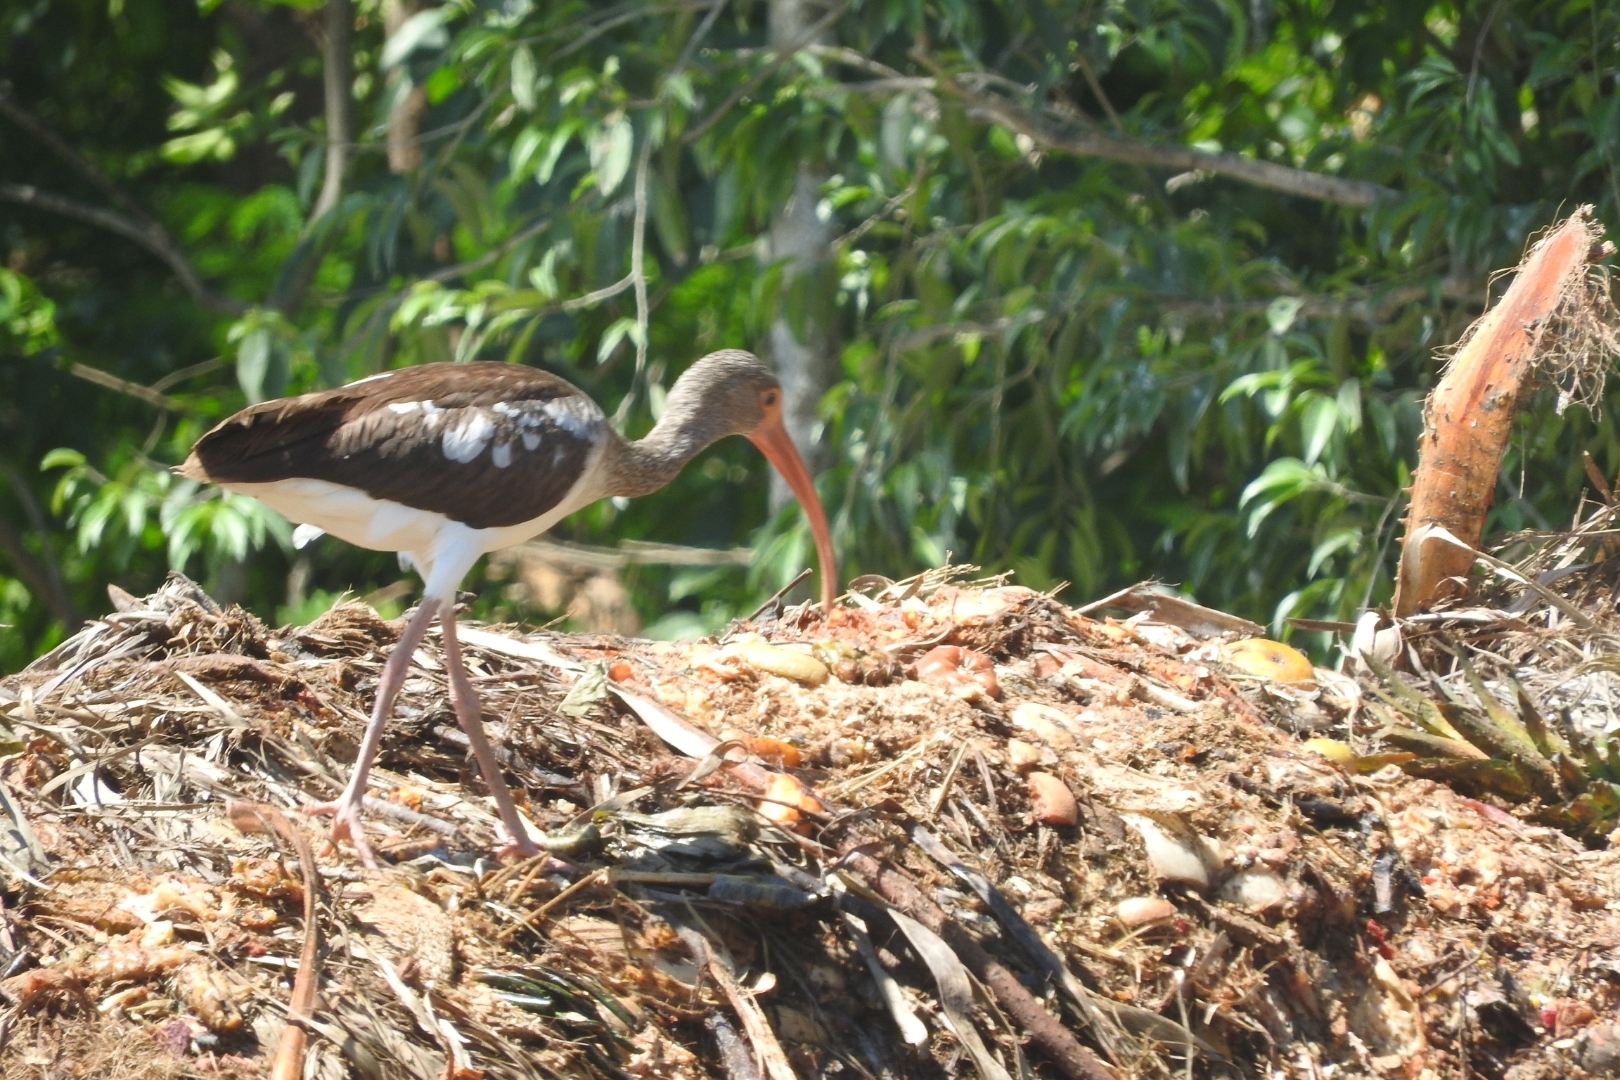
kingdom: Animalia
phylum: Chordata
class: Aves
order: Pelecaniformes
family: Threskiornithidae
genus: Eudocimus
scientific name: Eudocimus albus
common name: White ibis
